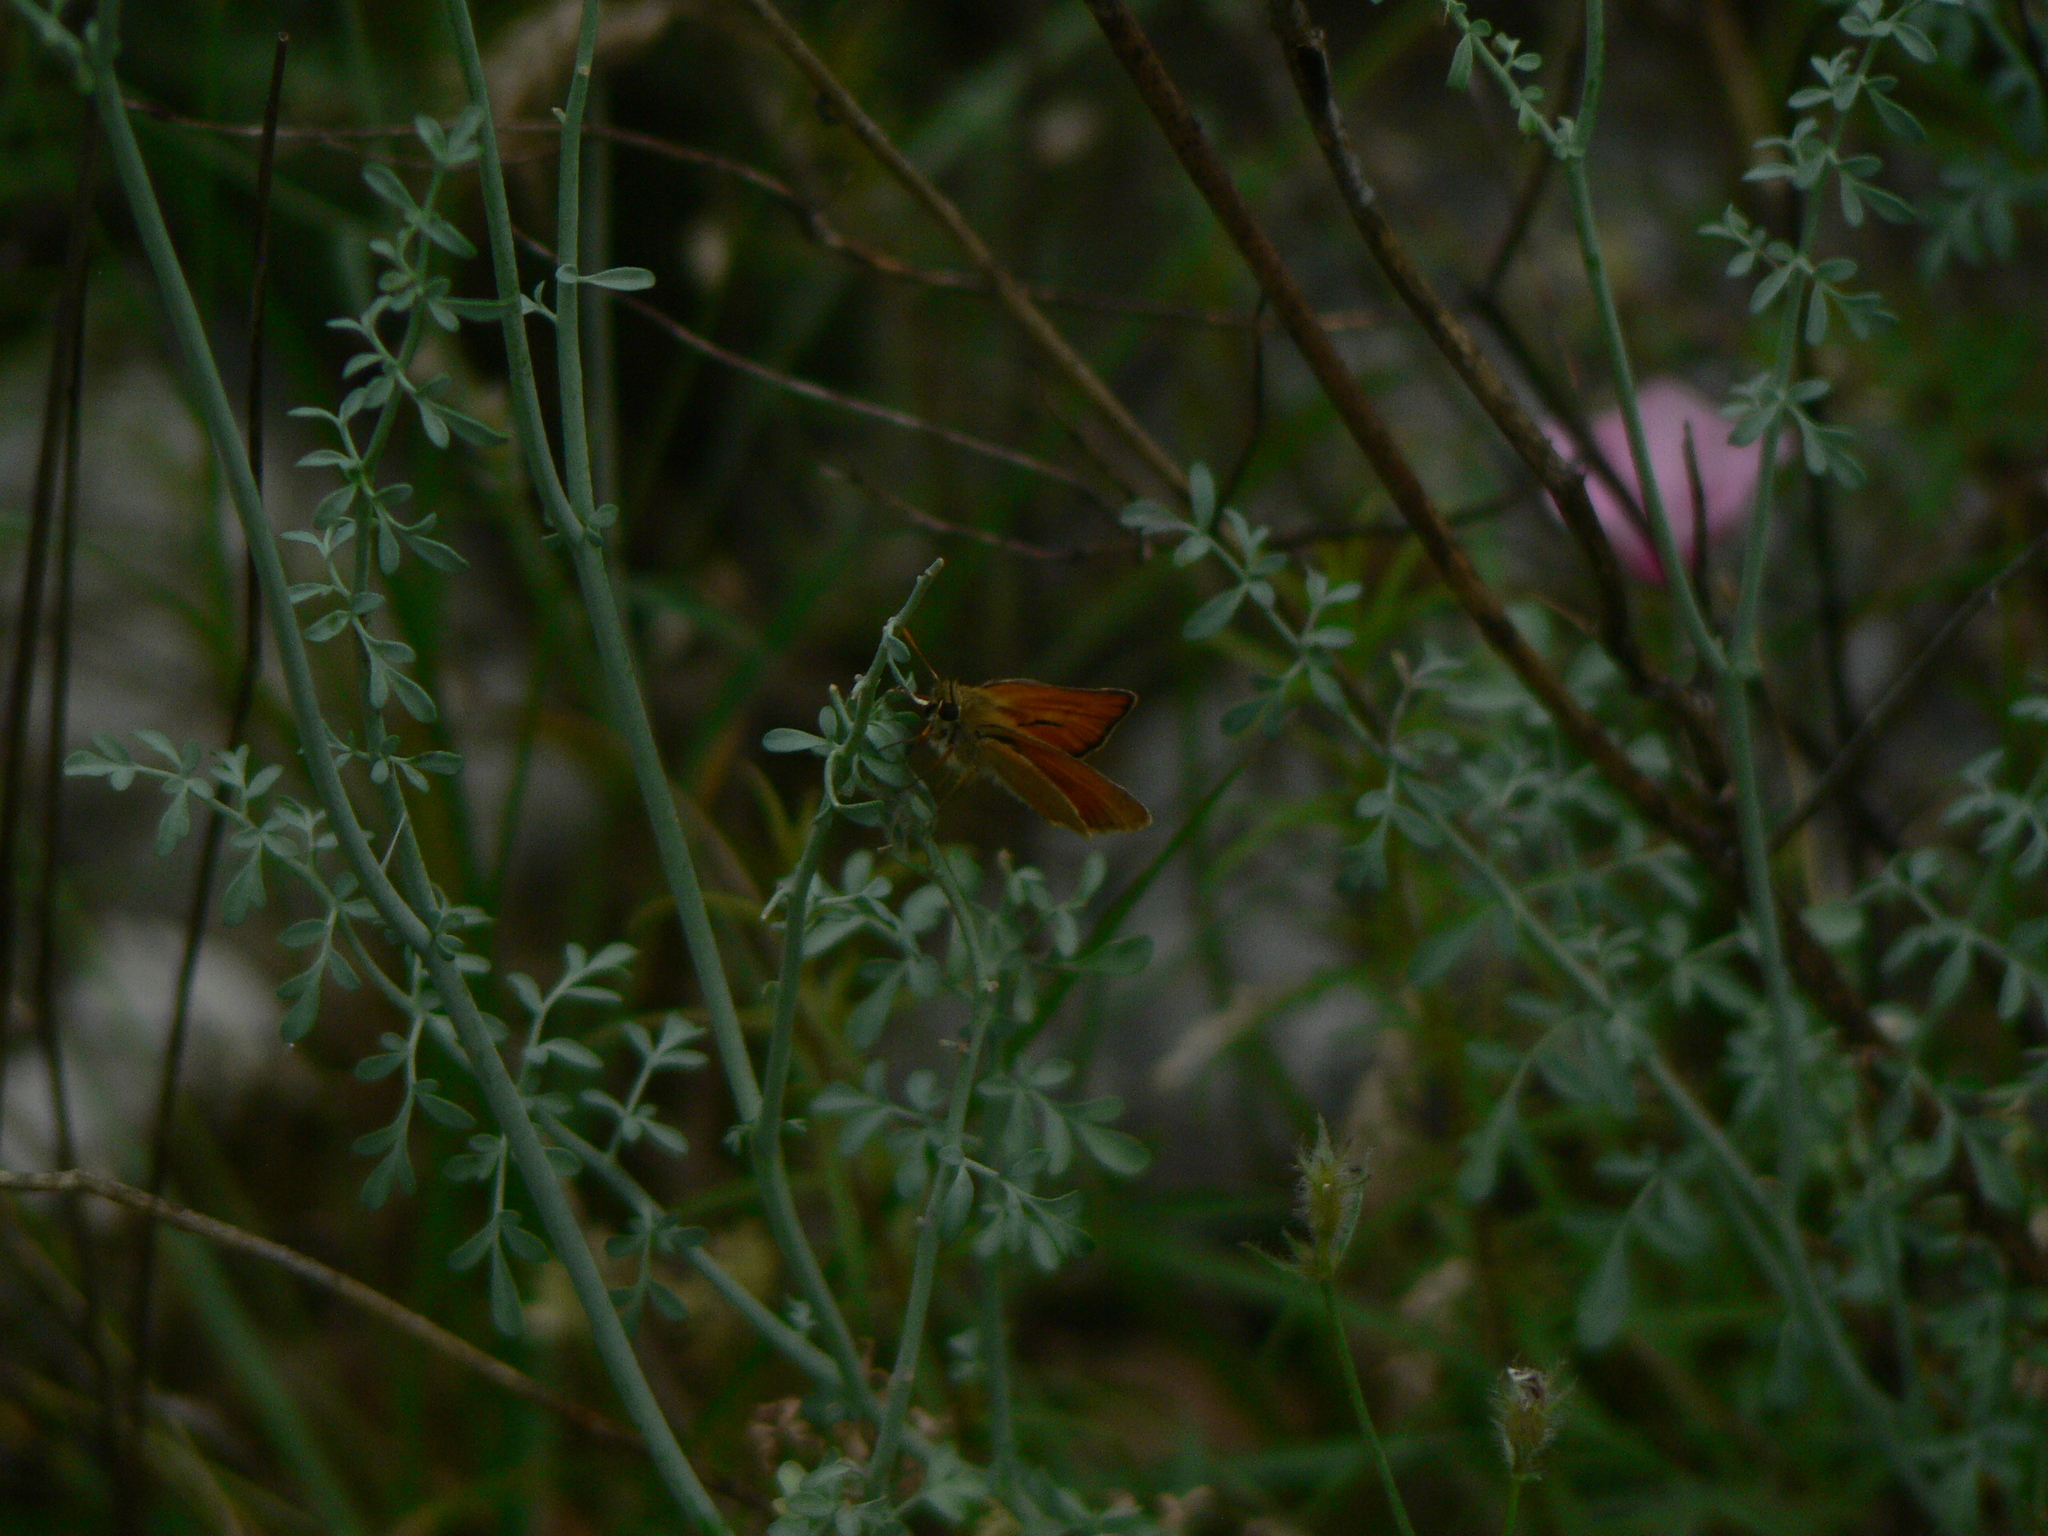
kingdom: Animalia
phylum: Arthropoda
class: Insecta
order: Lepidoptera
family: Hesperiidae
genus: Thymelicus
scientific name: Thymelicus sylvestris
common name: Small skipper
